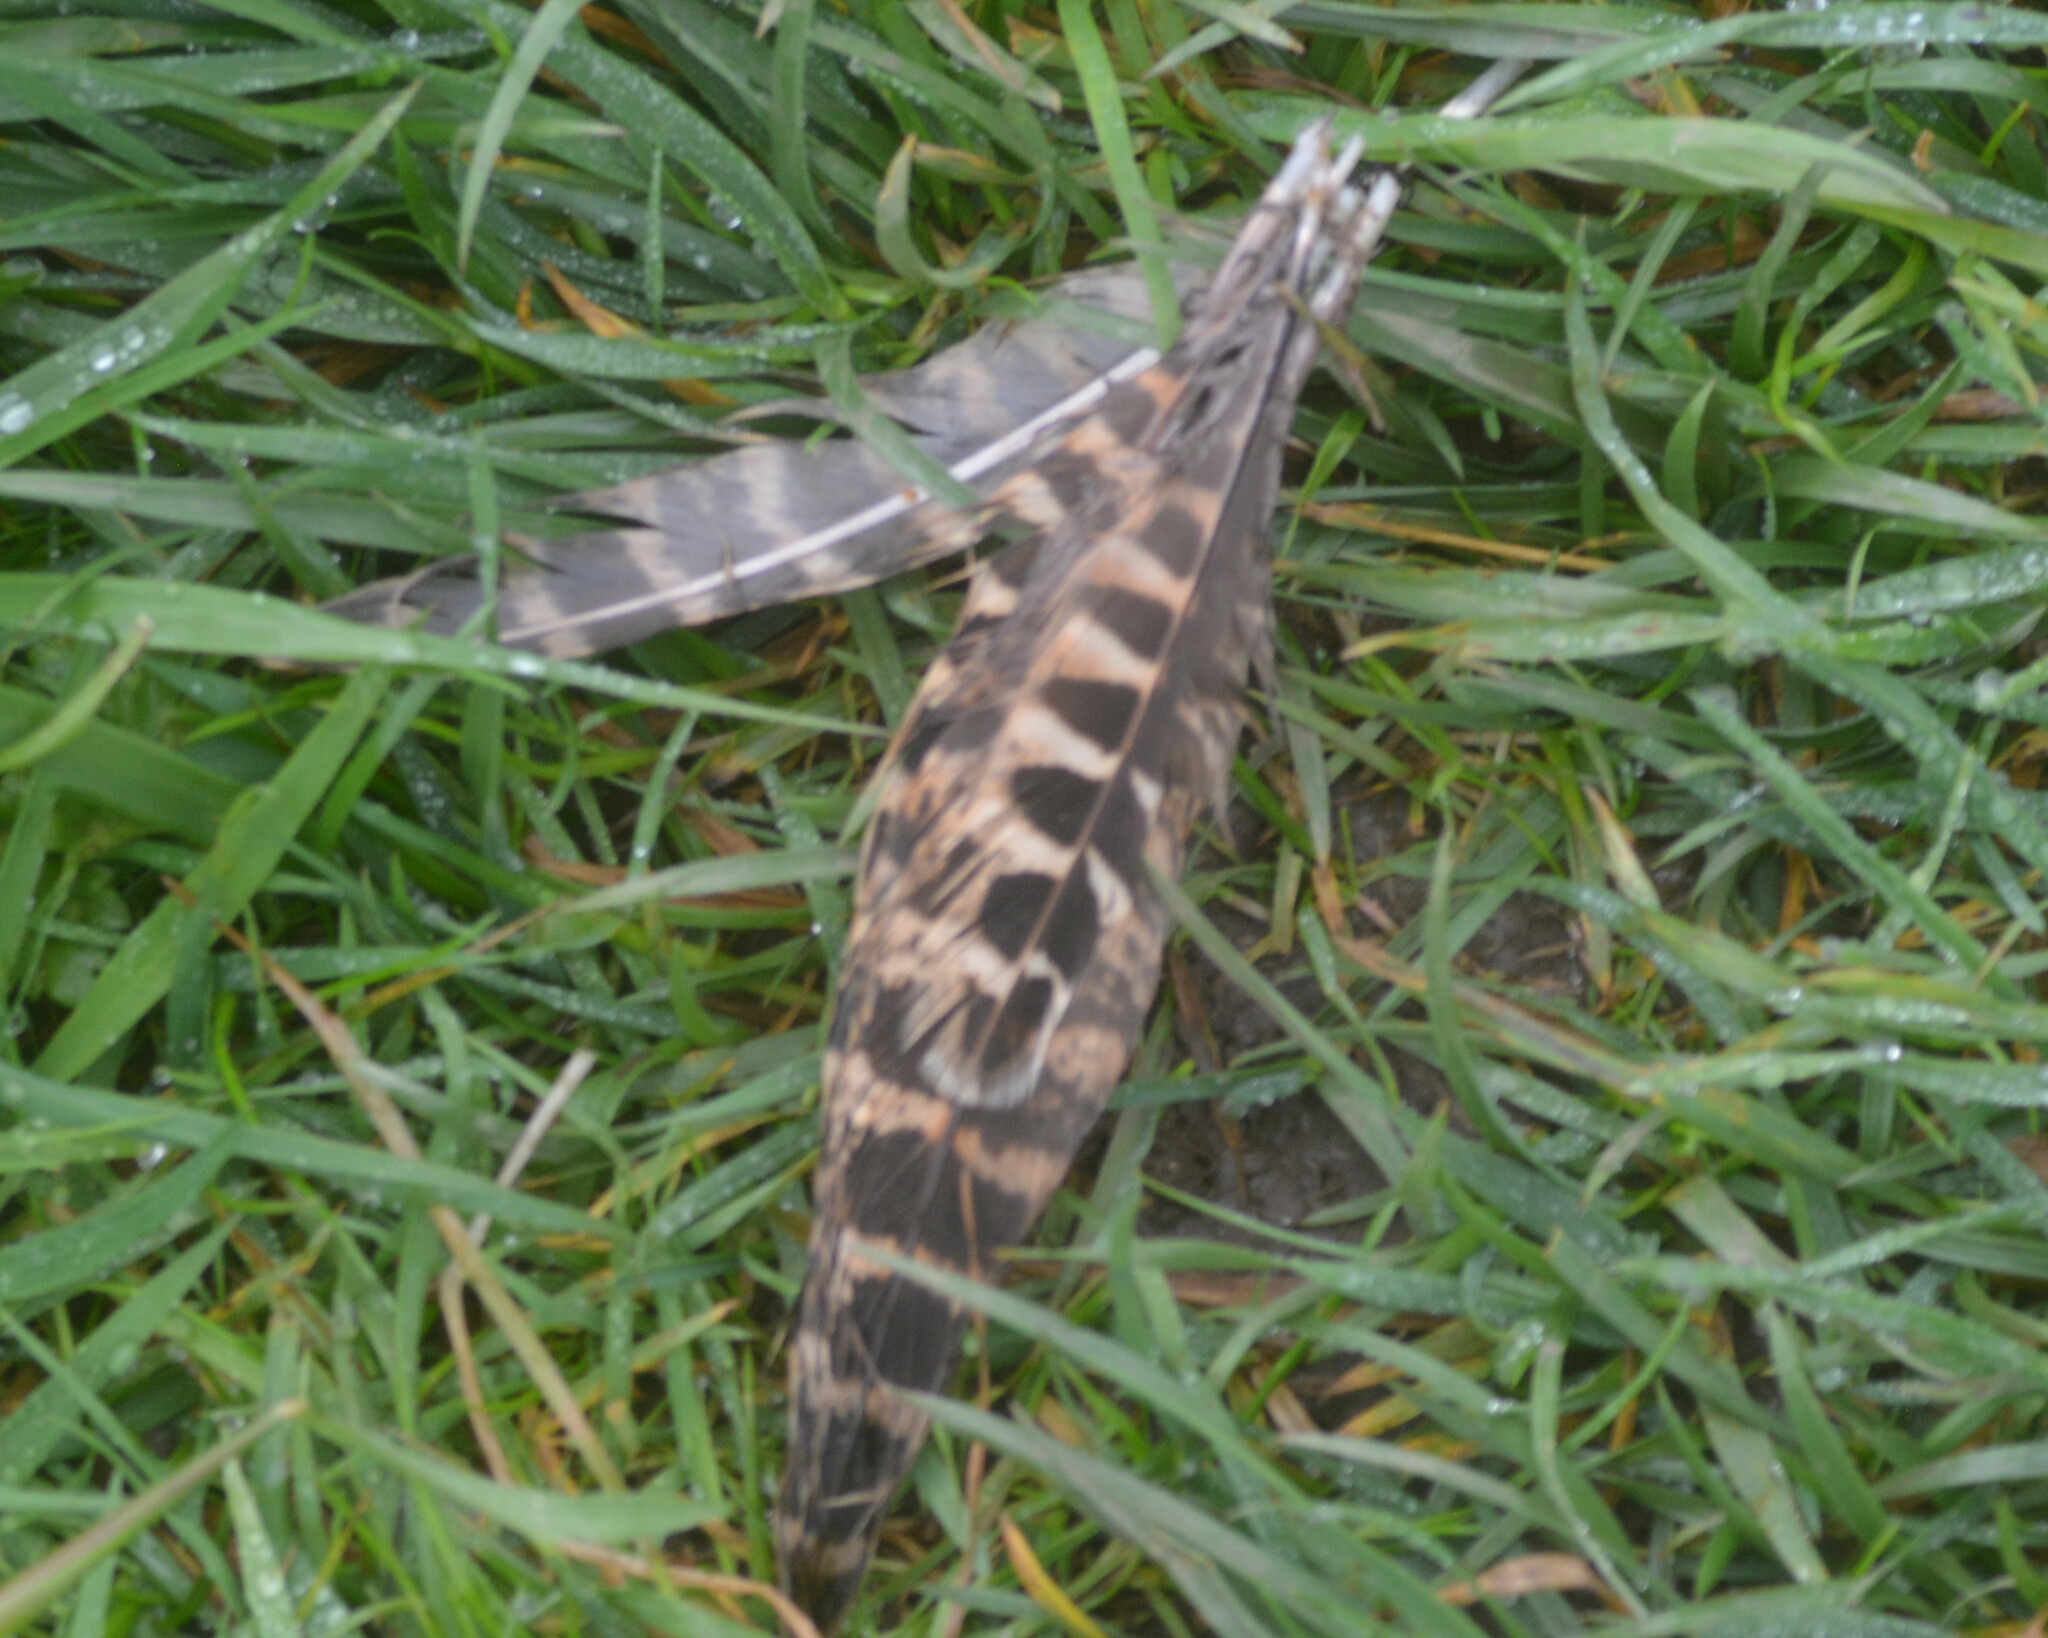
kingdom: Animalia
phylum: Chordata
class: Aves
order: Galliformes
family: Phasianidae
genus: Phasianus
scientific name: Phasianus colchicus
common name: Common pheasant
